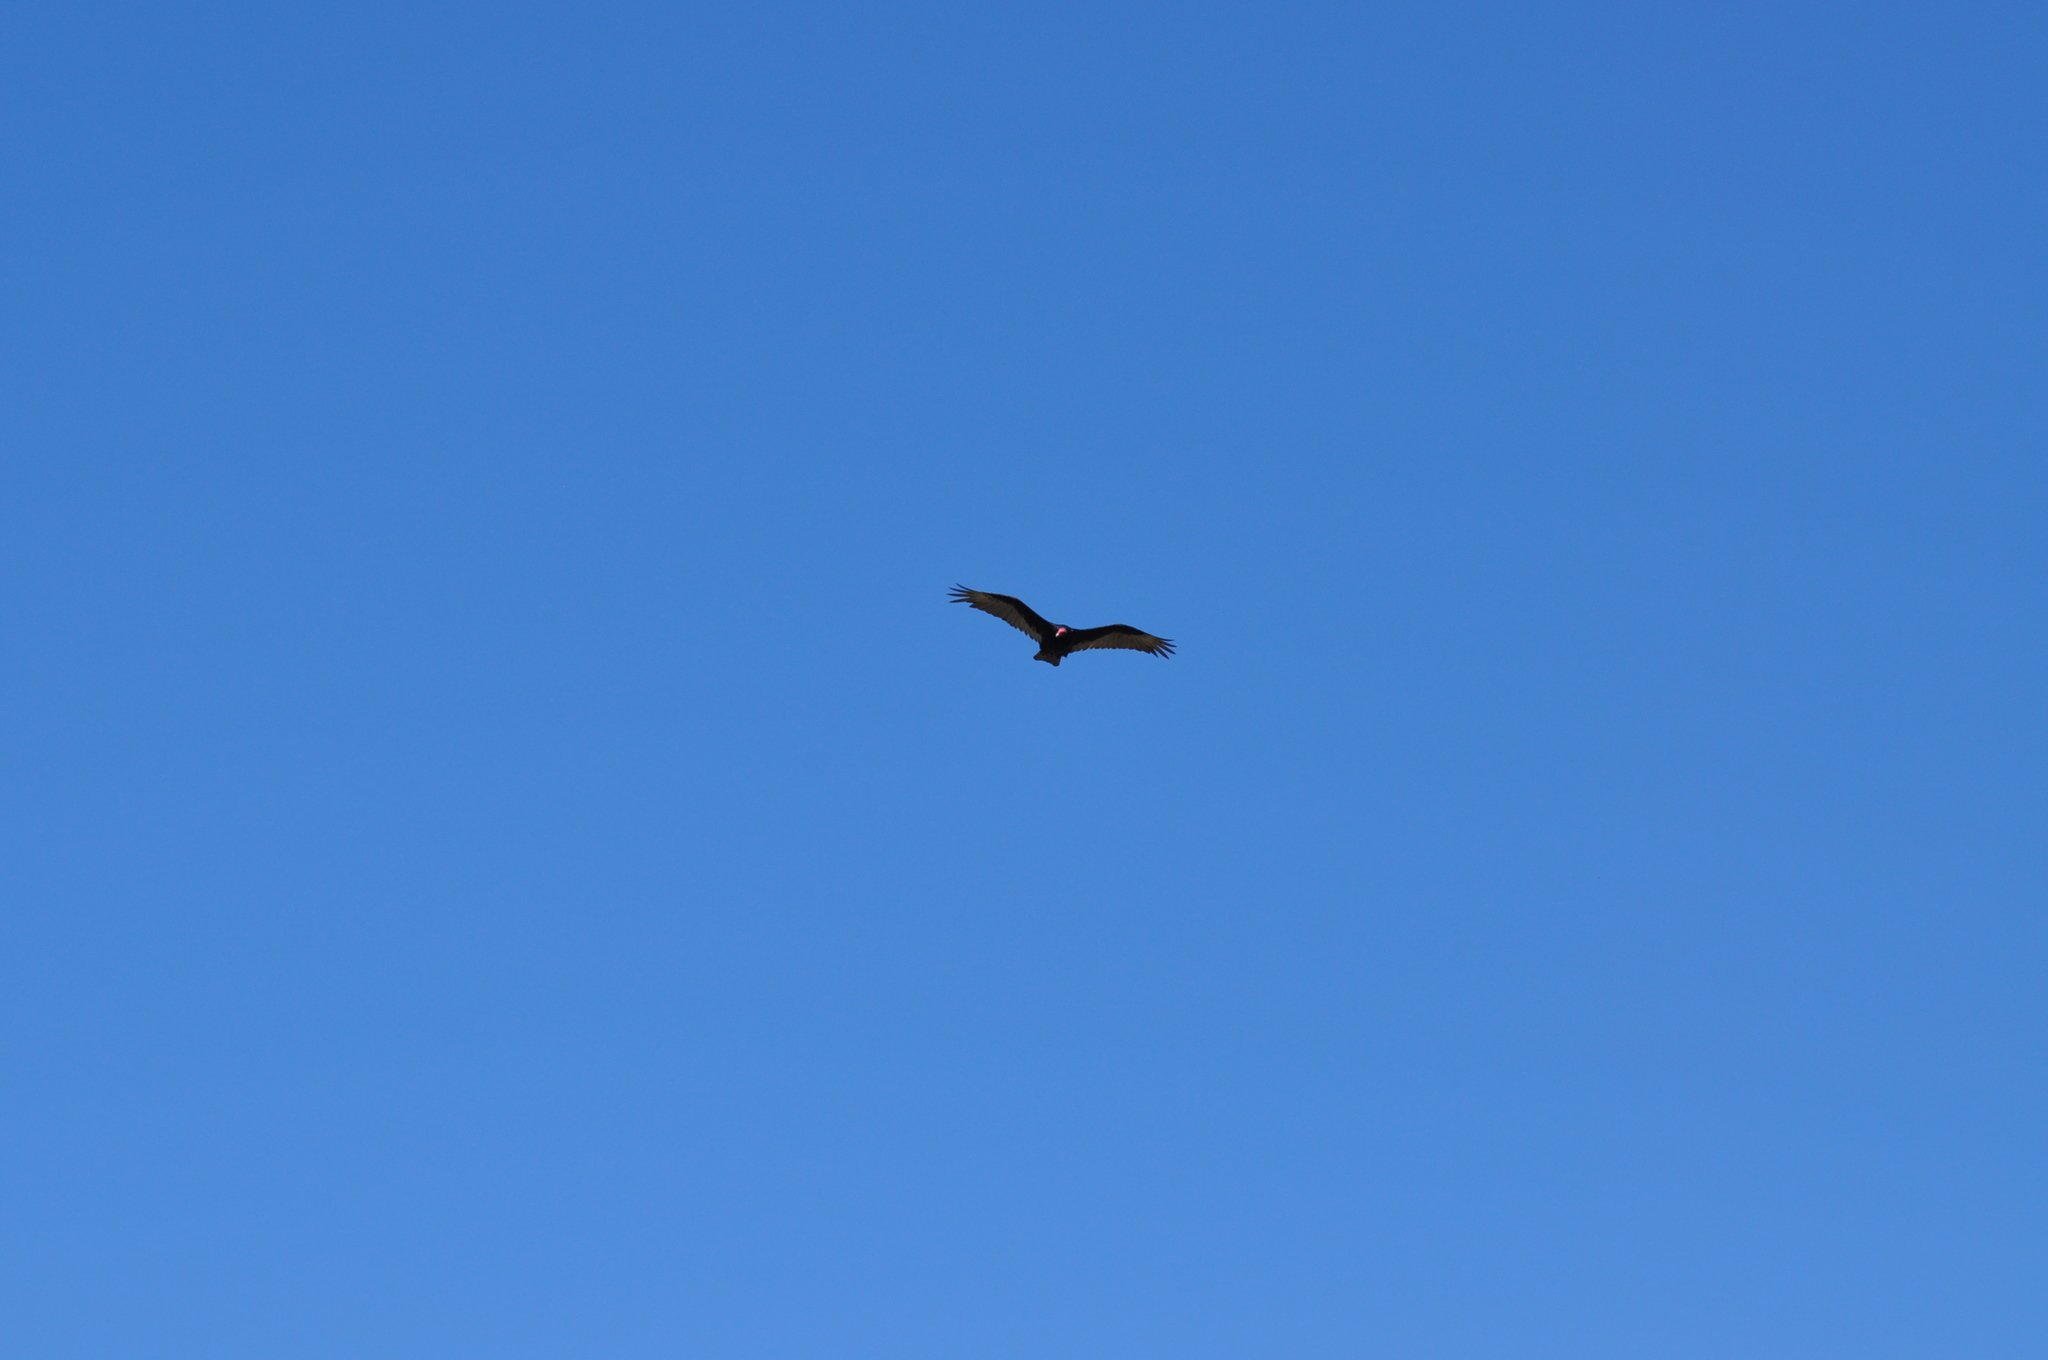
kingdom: Animalia
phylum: Chordata
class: Aves
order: Accipitriformes
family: Cathartidae
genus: Cathartes
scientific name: Cathartes aura
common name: Turkey vulture
